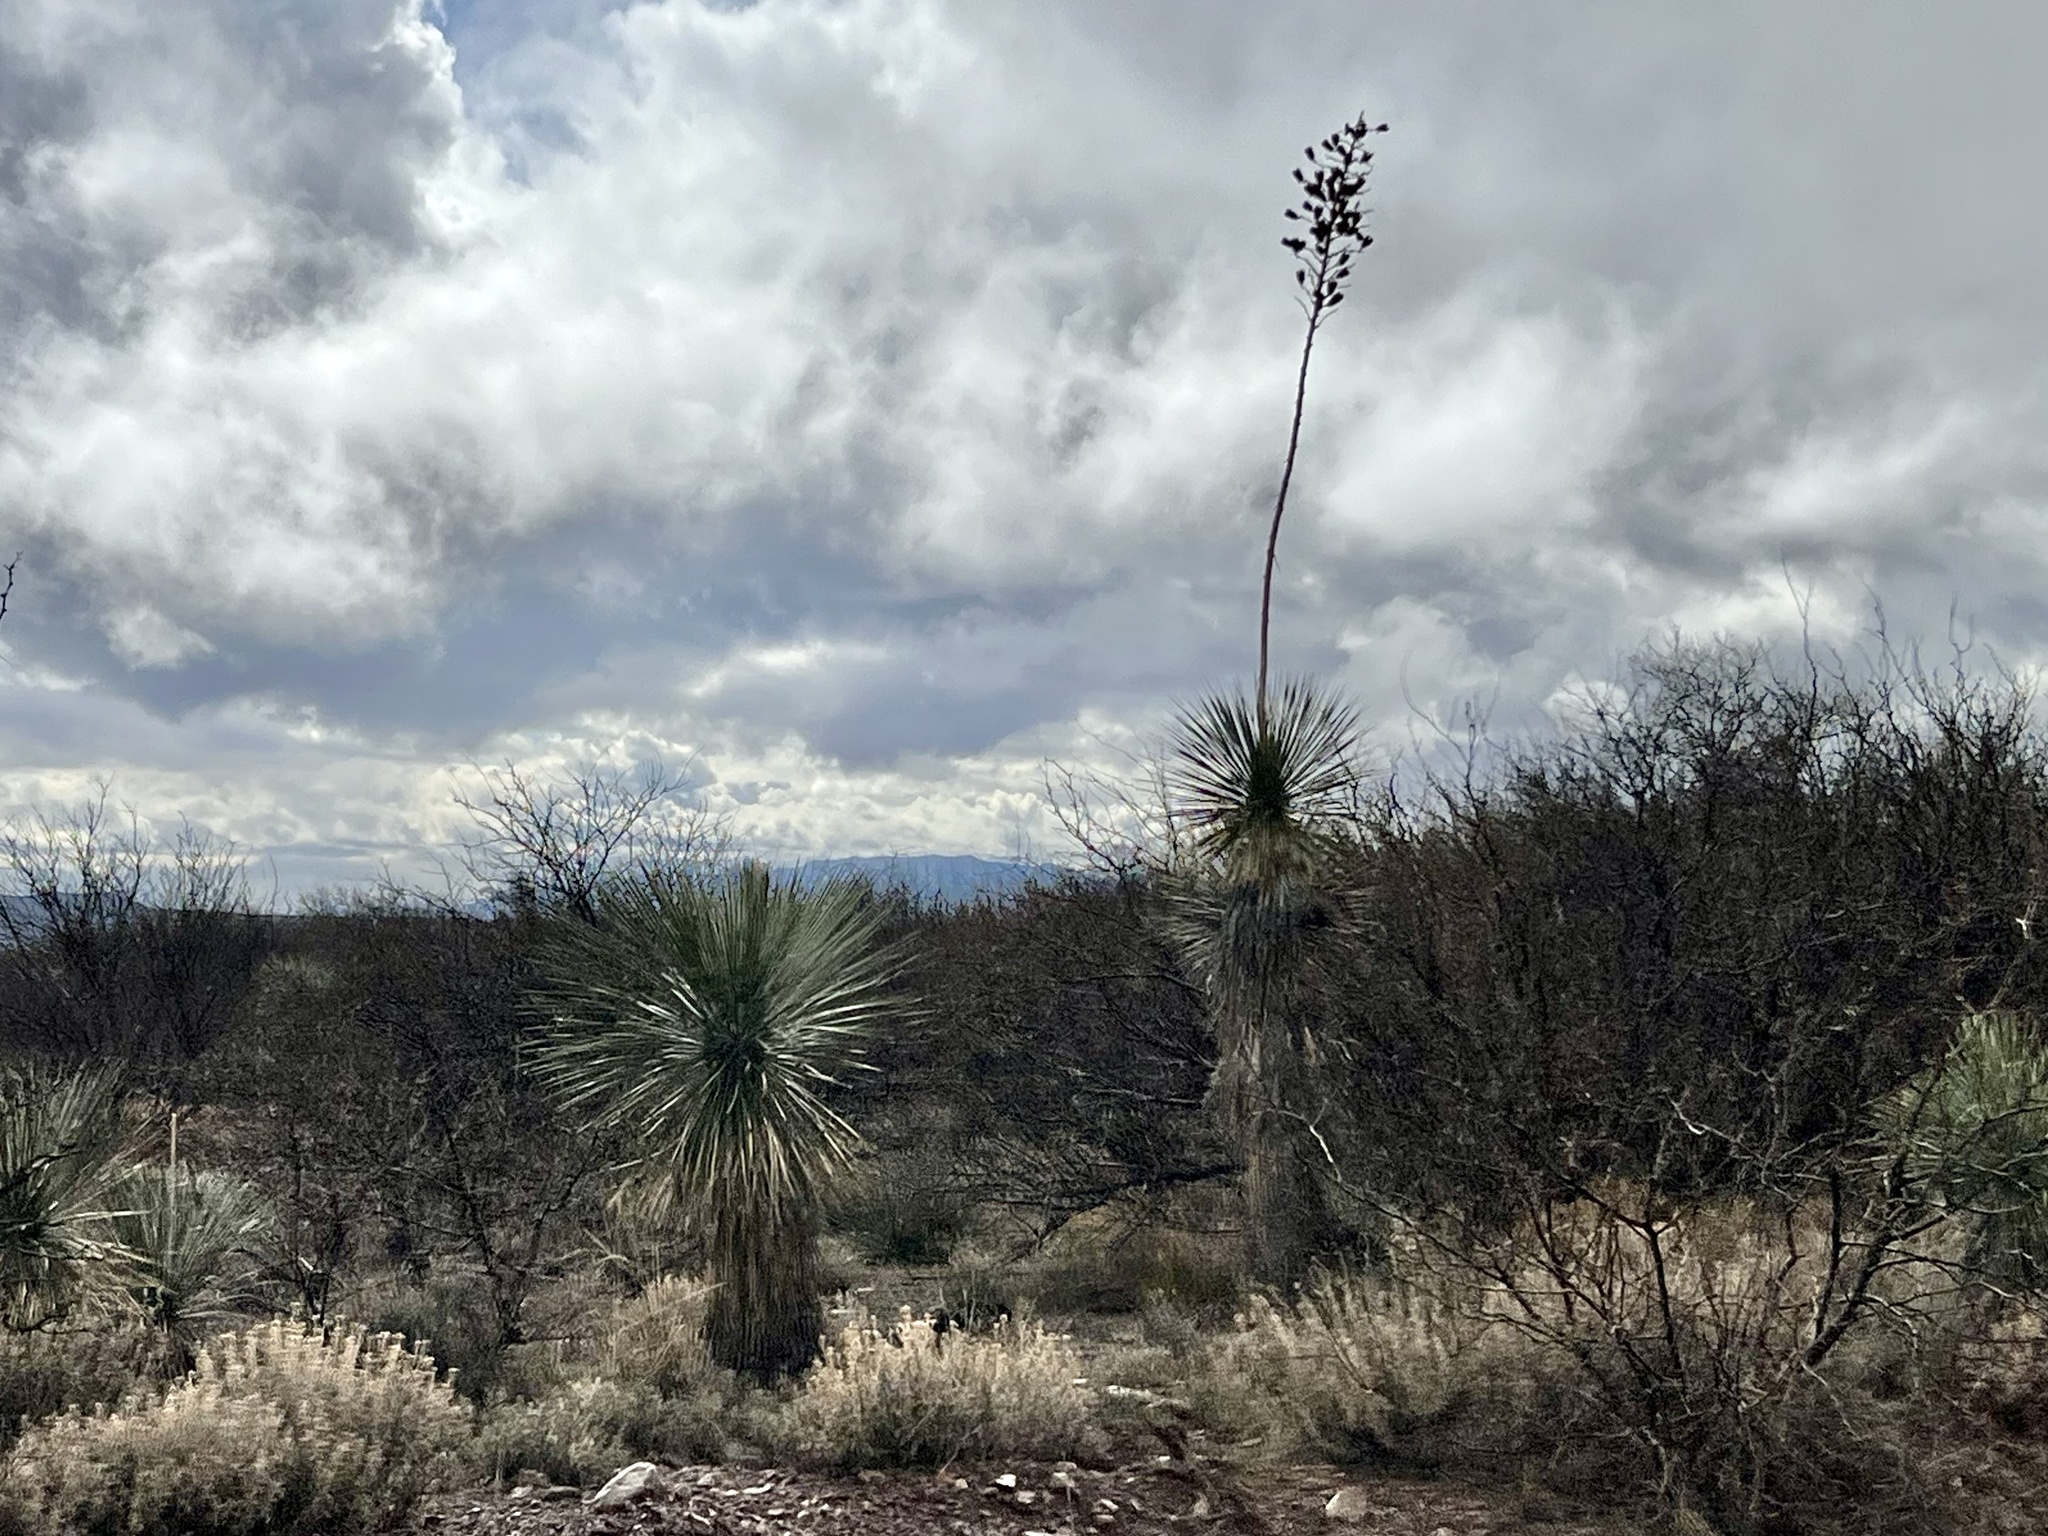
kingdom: Plantae
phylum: Tracheophyta
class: Liliopsida
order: Asparagales
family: Asparagaceae
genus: Yucca
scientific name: Yucca elata
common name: Palmella
